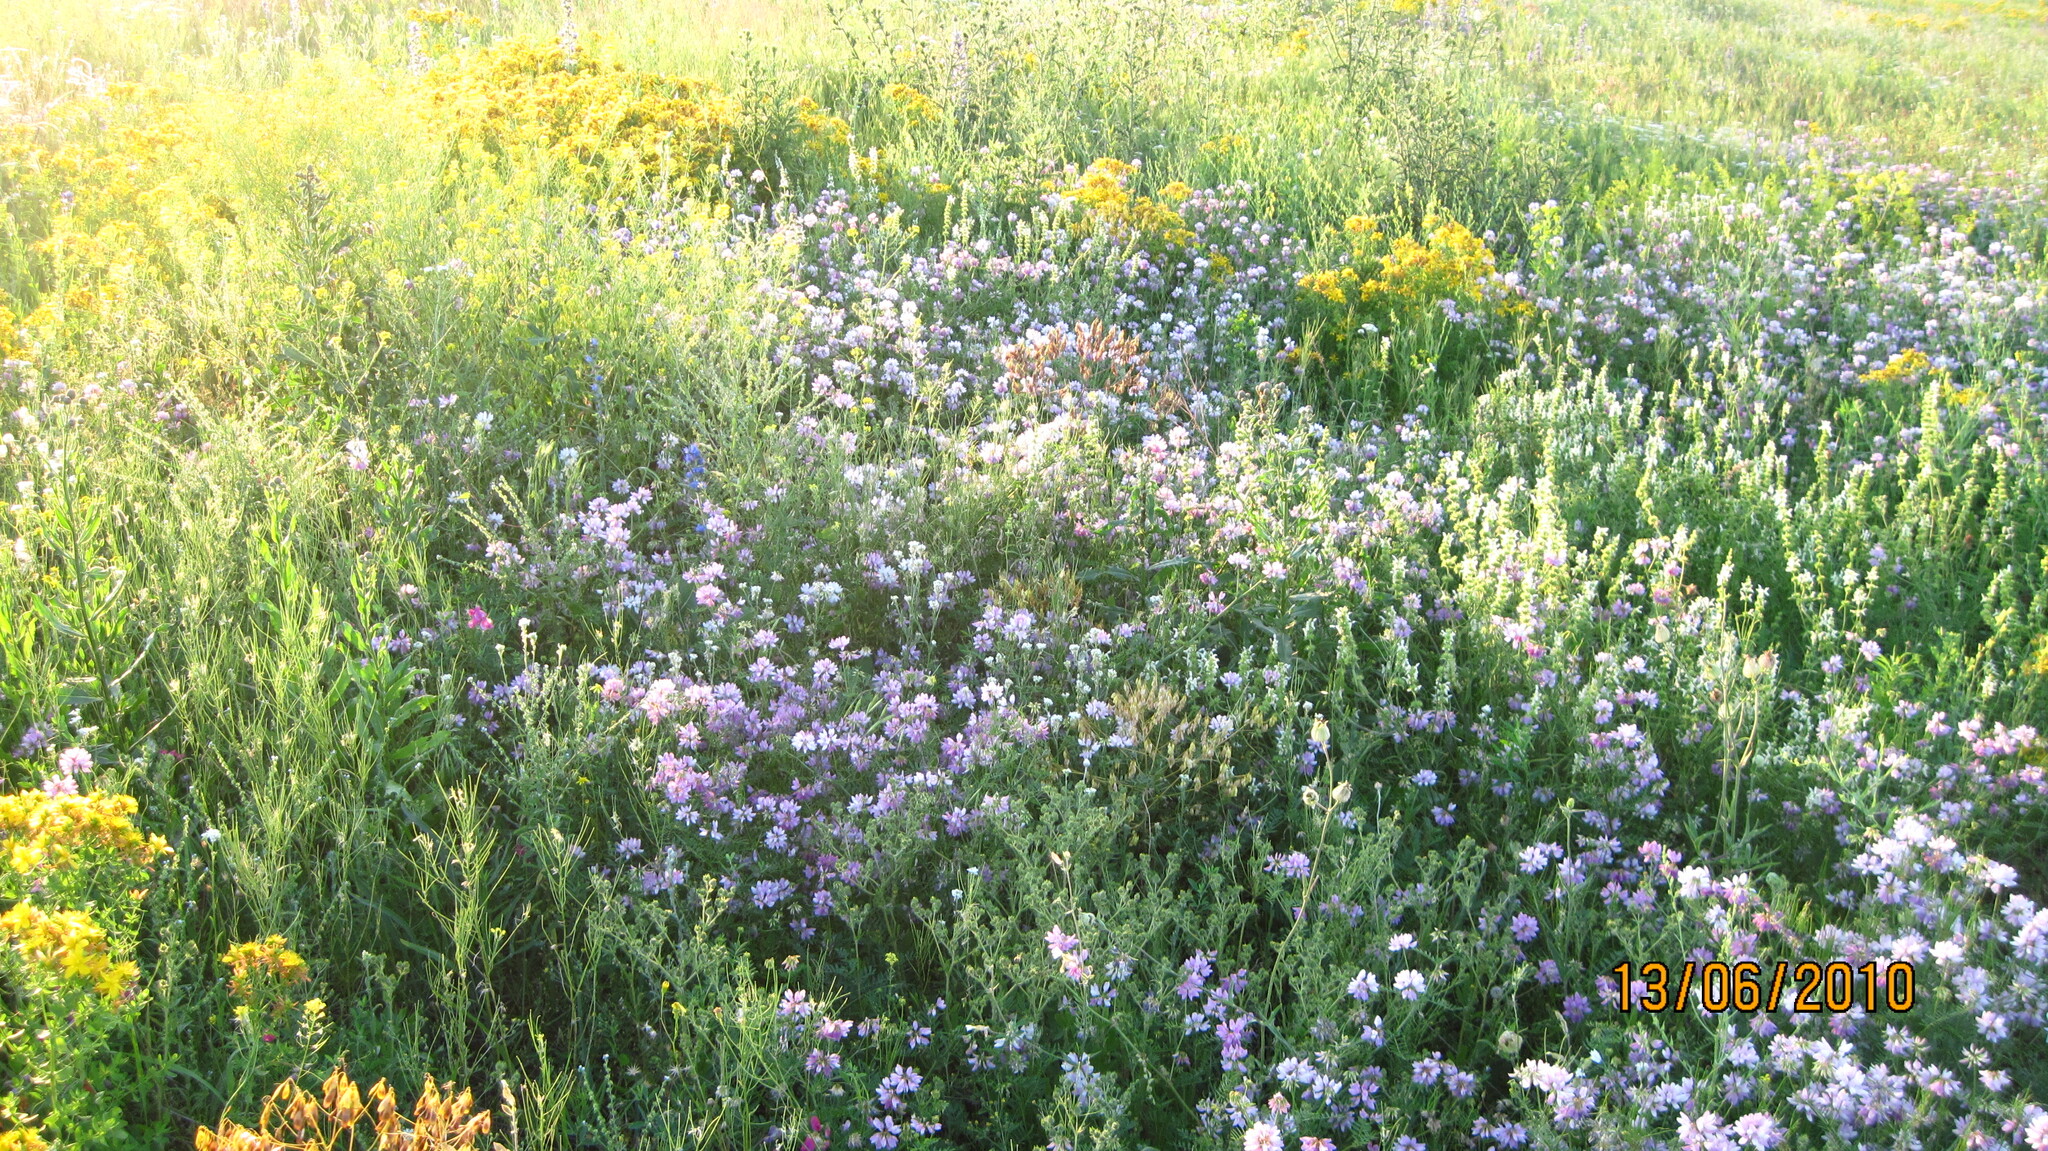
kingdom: Plantae
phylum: Tracheophyta
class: Magnoliopsida
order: Fabales
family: Fabaceae
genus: Coronilla
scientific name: Coronilla varia
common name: Crownvetch
